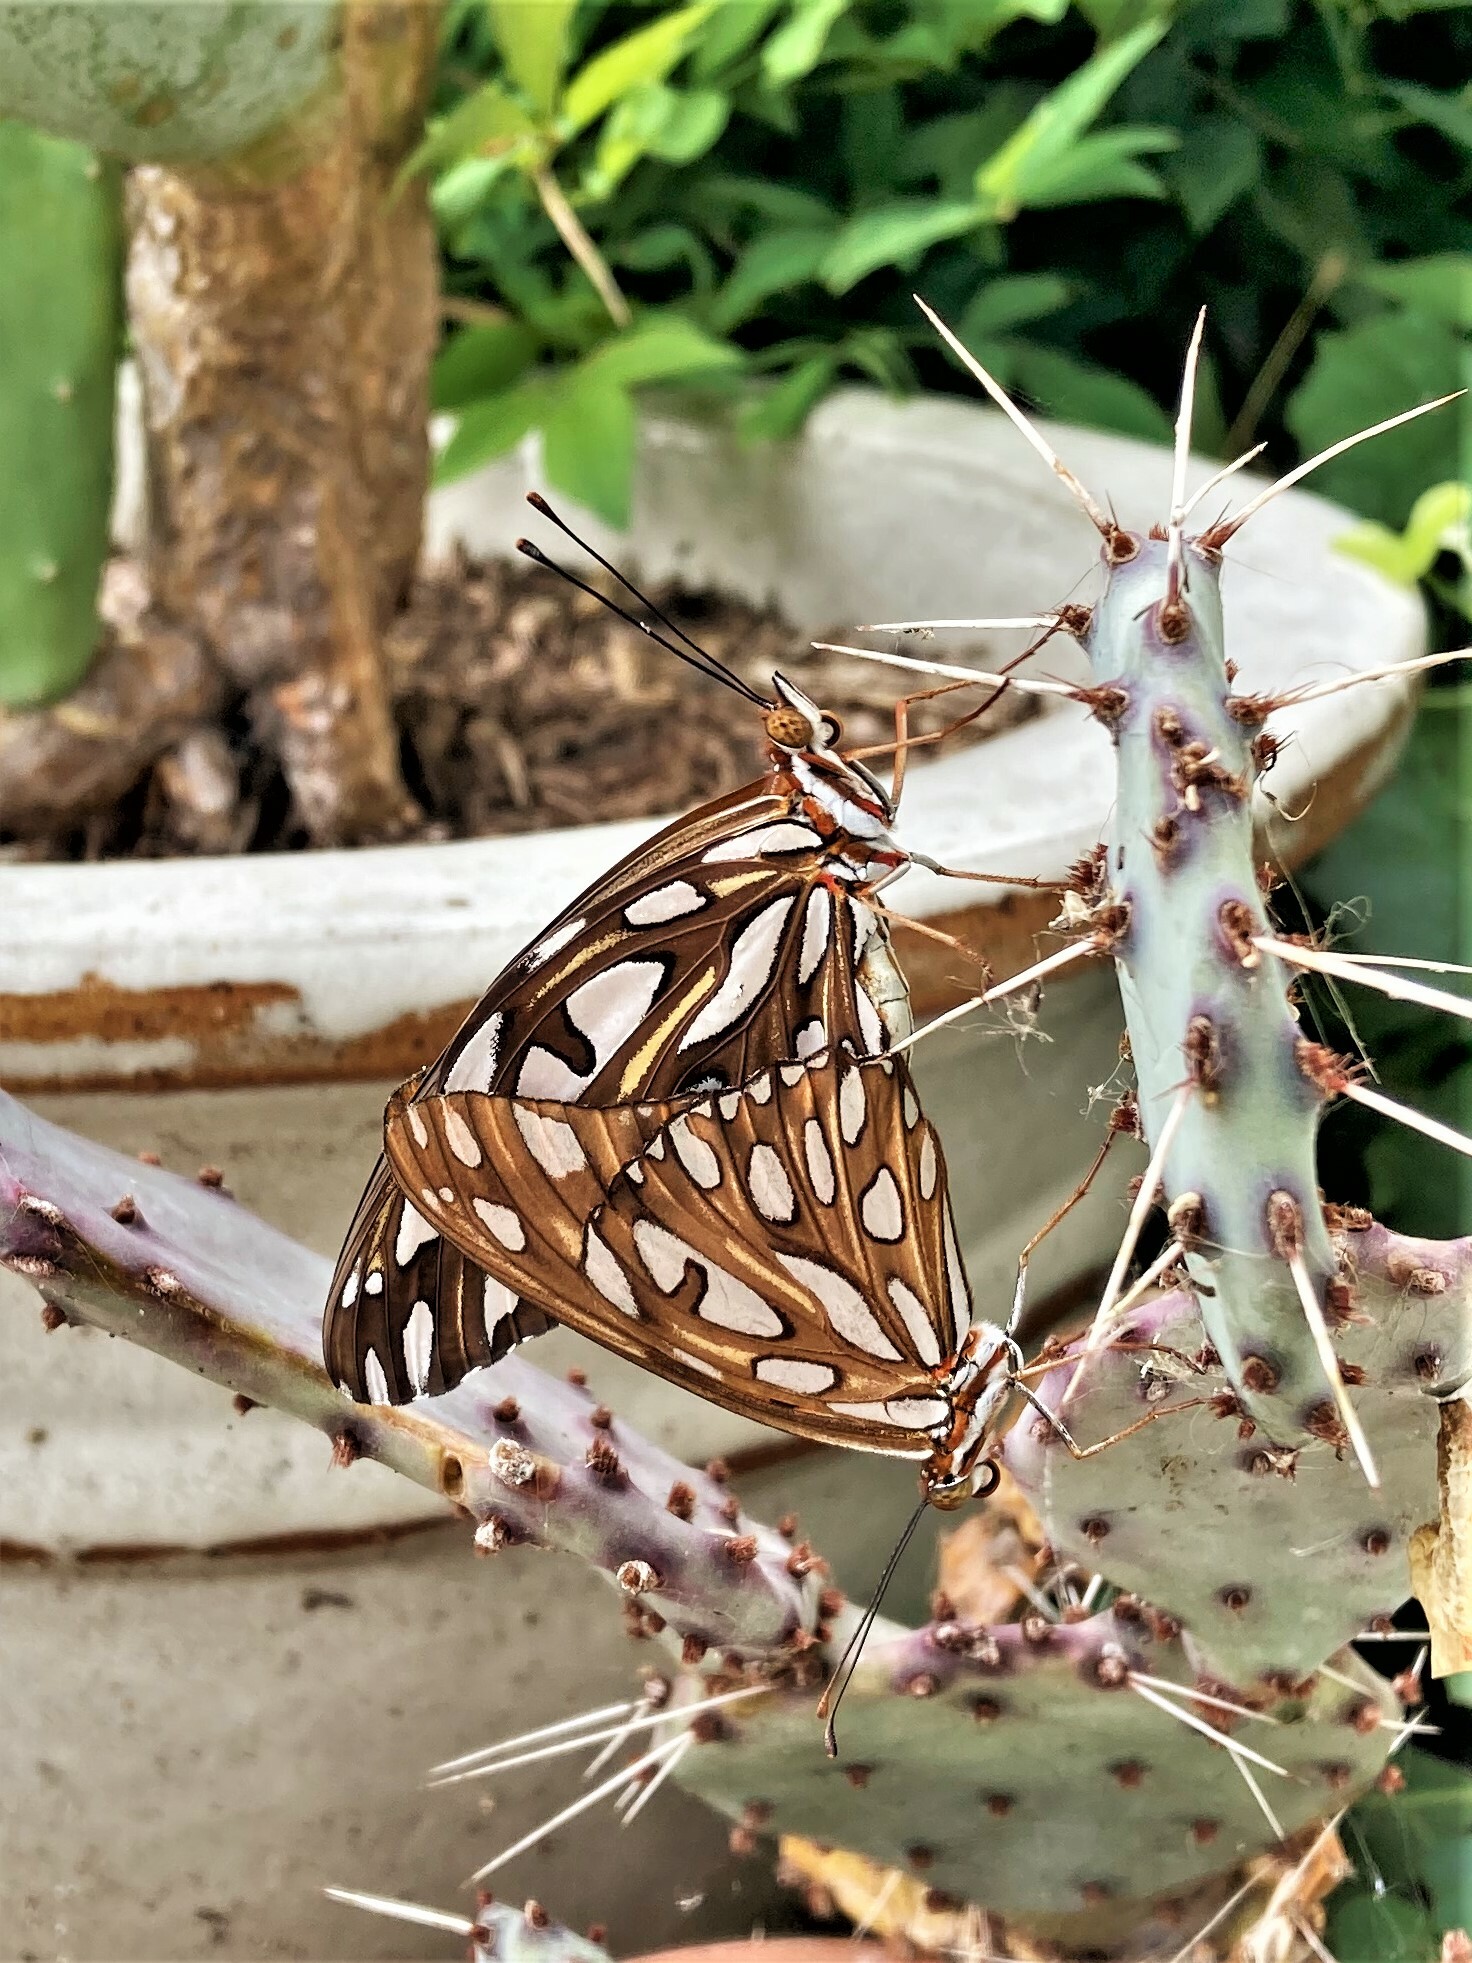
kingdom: Animalia
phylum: Arthropoda
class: Insecta
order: Lepidoptera
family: Nymphalidae
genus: Dione
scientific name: Dione vanillae
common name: Gulf fritillary
